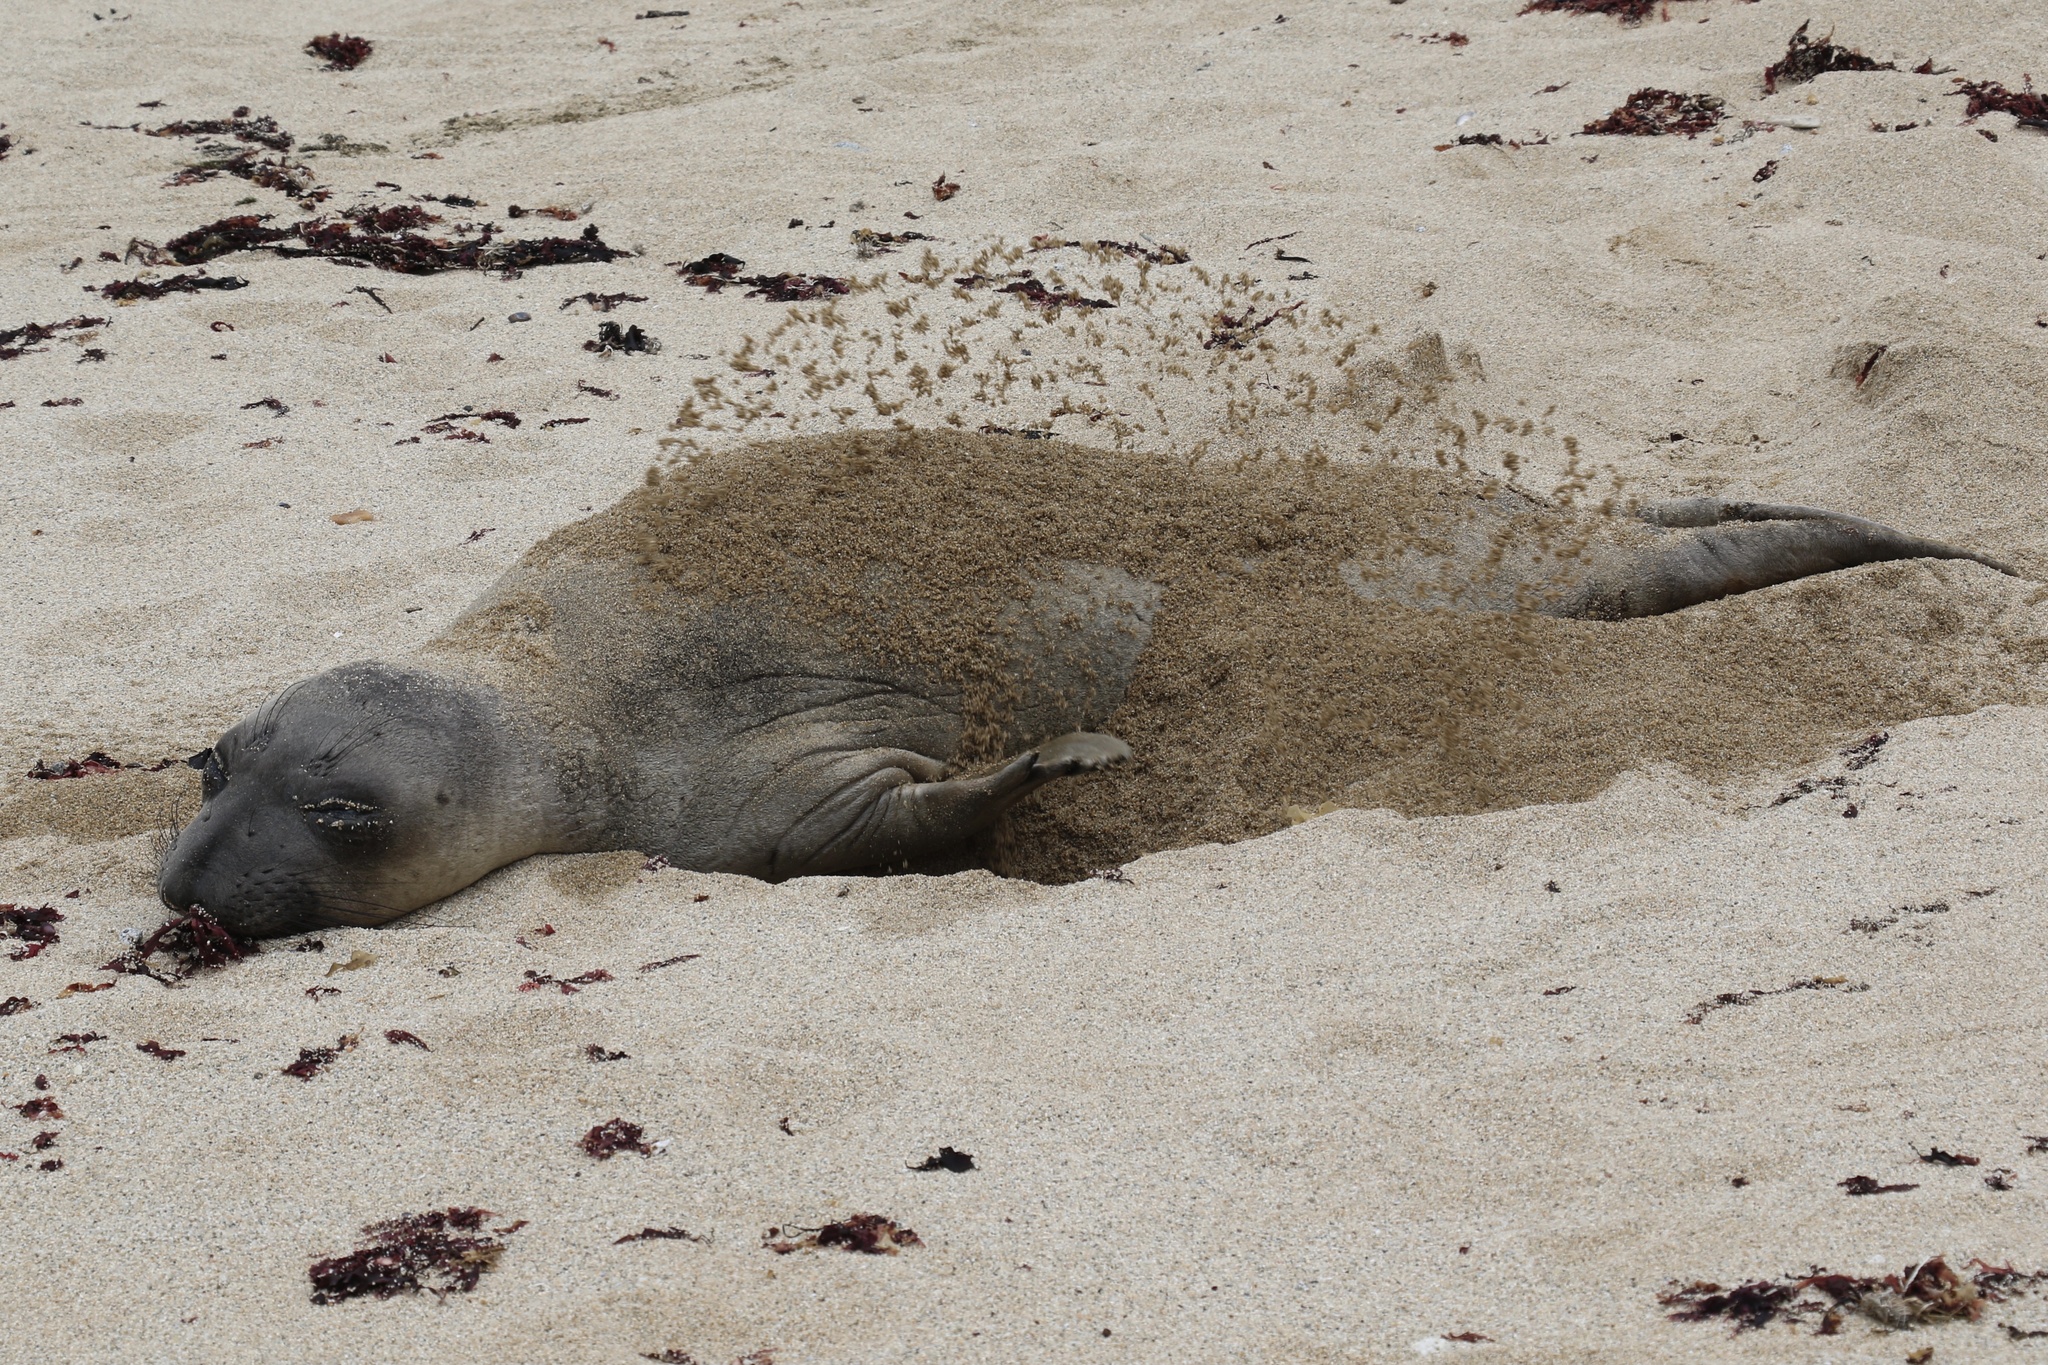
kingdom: Animalia
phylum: Chordata
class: Mammalia
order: Carnivora
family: Phocidae
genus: Mirounga
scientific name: Mirounga angustirostris
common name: Northern elephant seal
